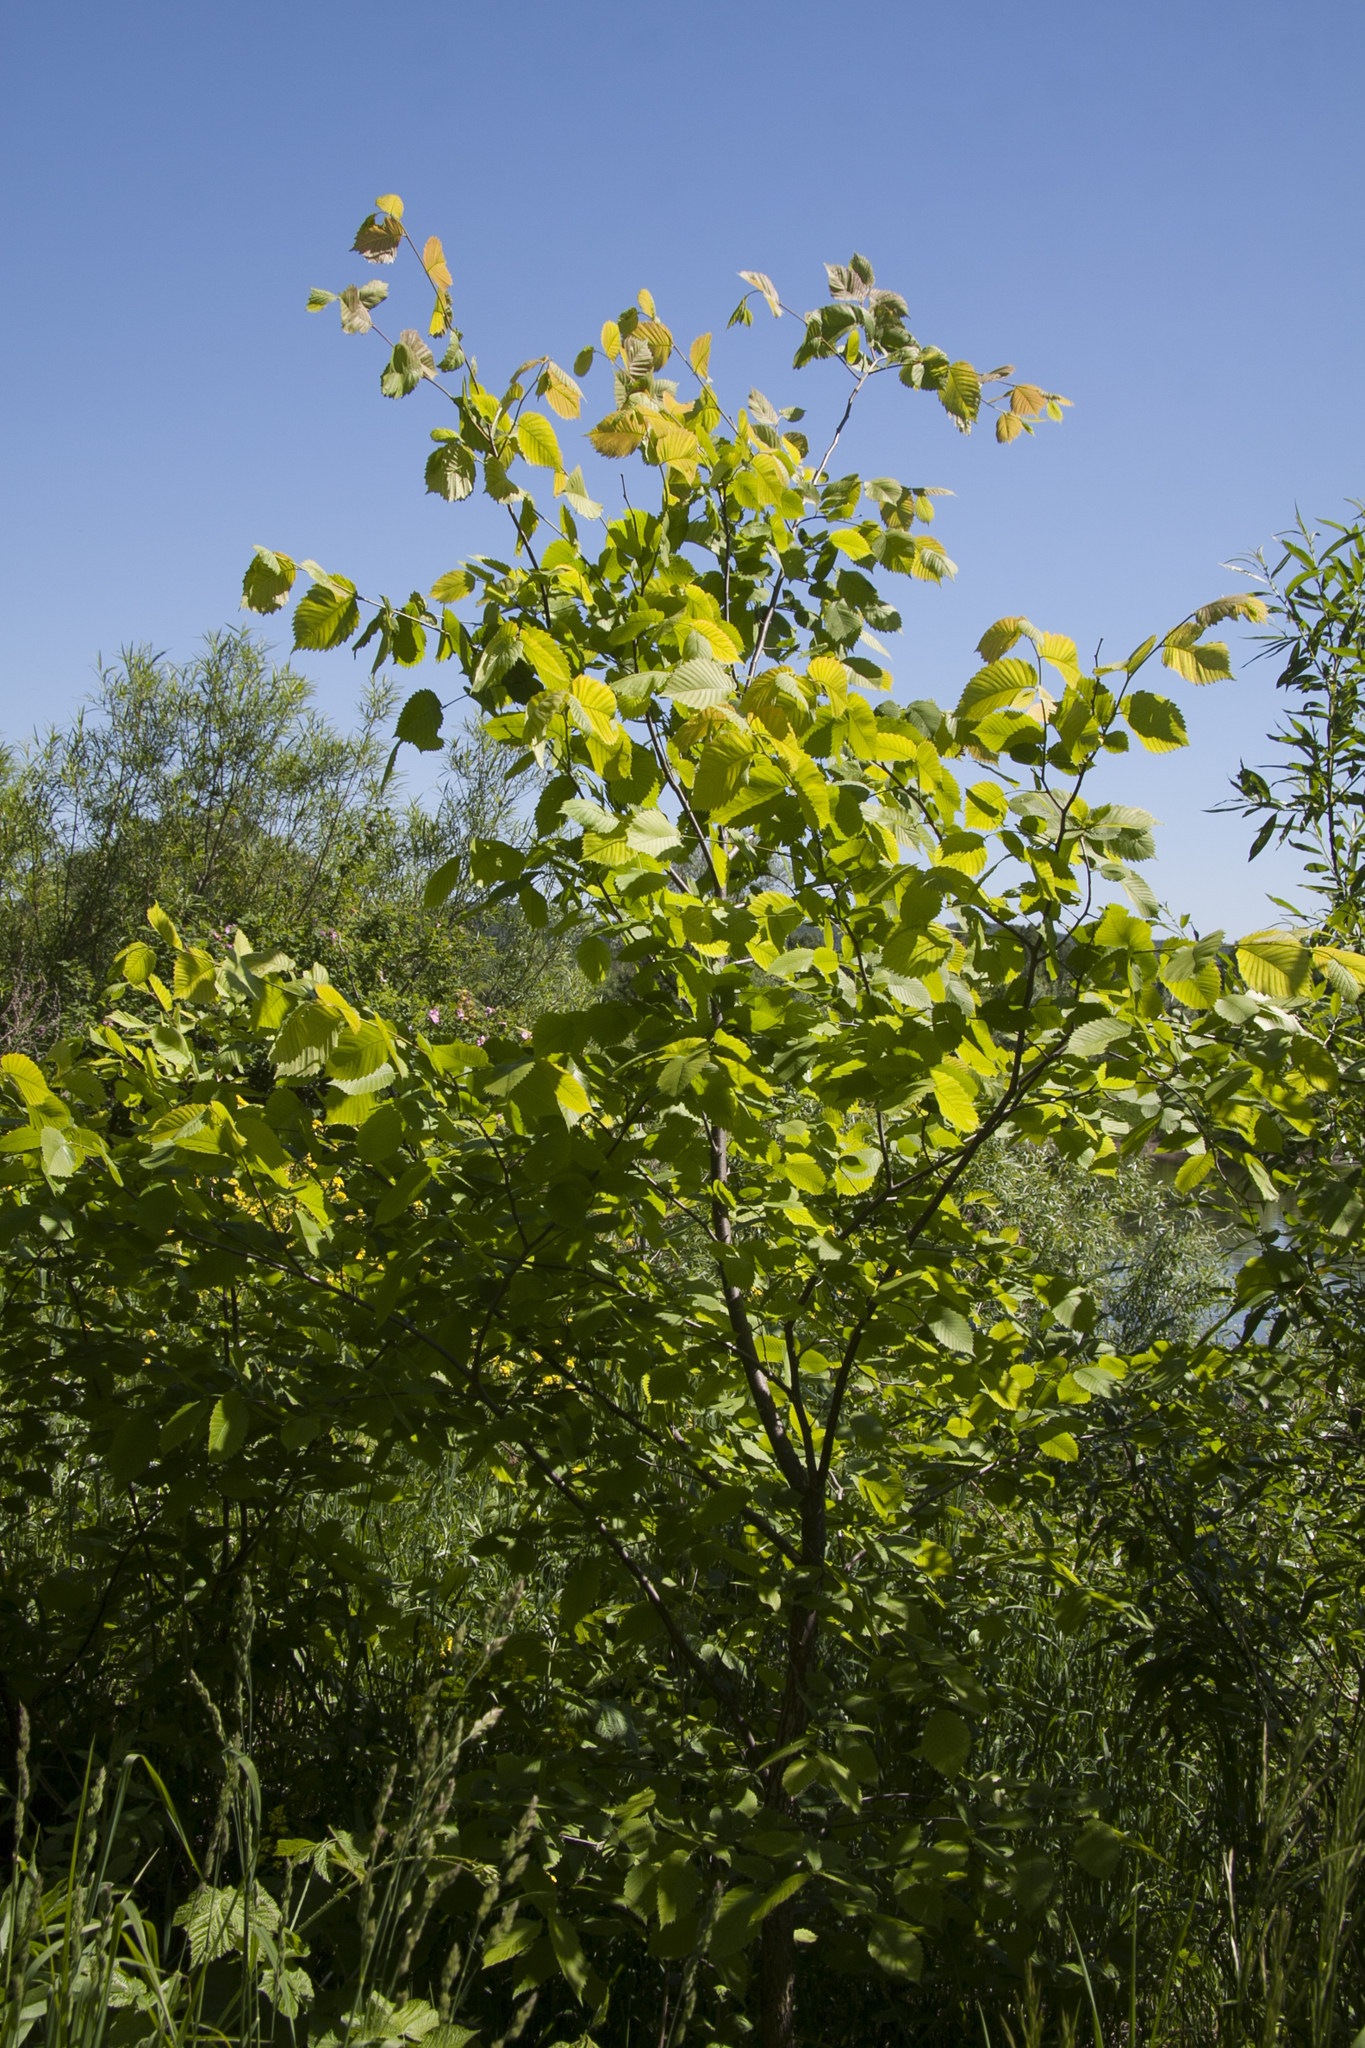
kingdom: Plantae
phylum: Tracheophyta
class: Magnoliopsida
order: Rosales
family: Ulmaceae
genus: Ulmus
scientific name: Ulmus glabra
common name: Wych elm
